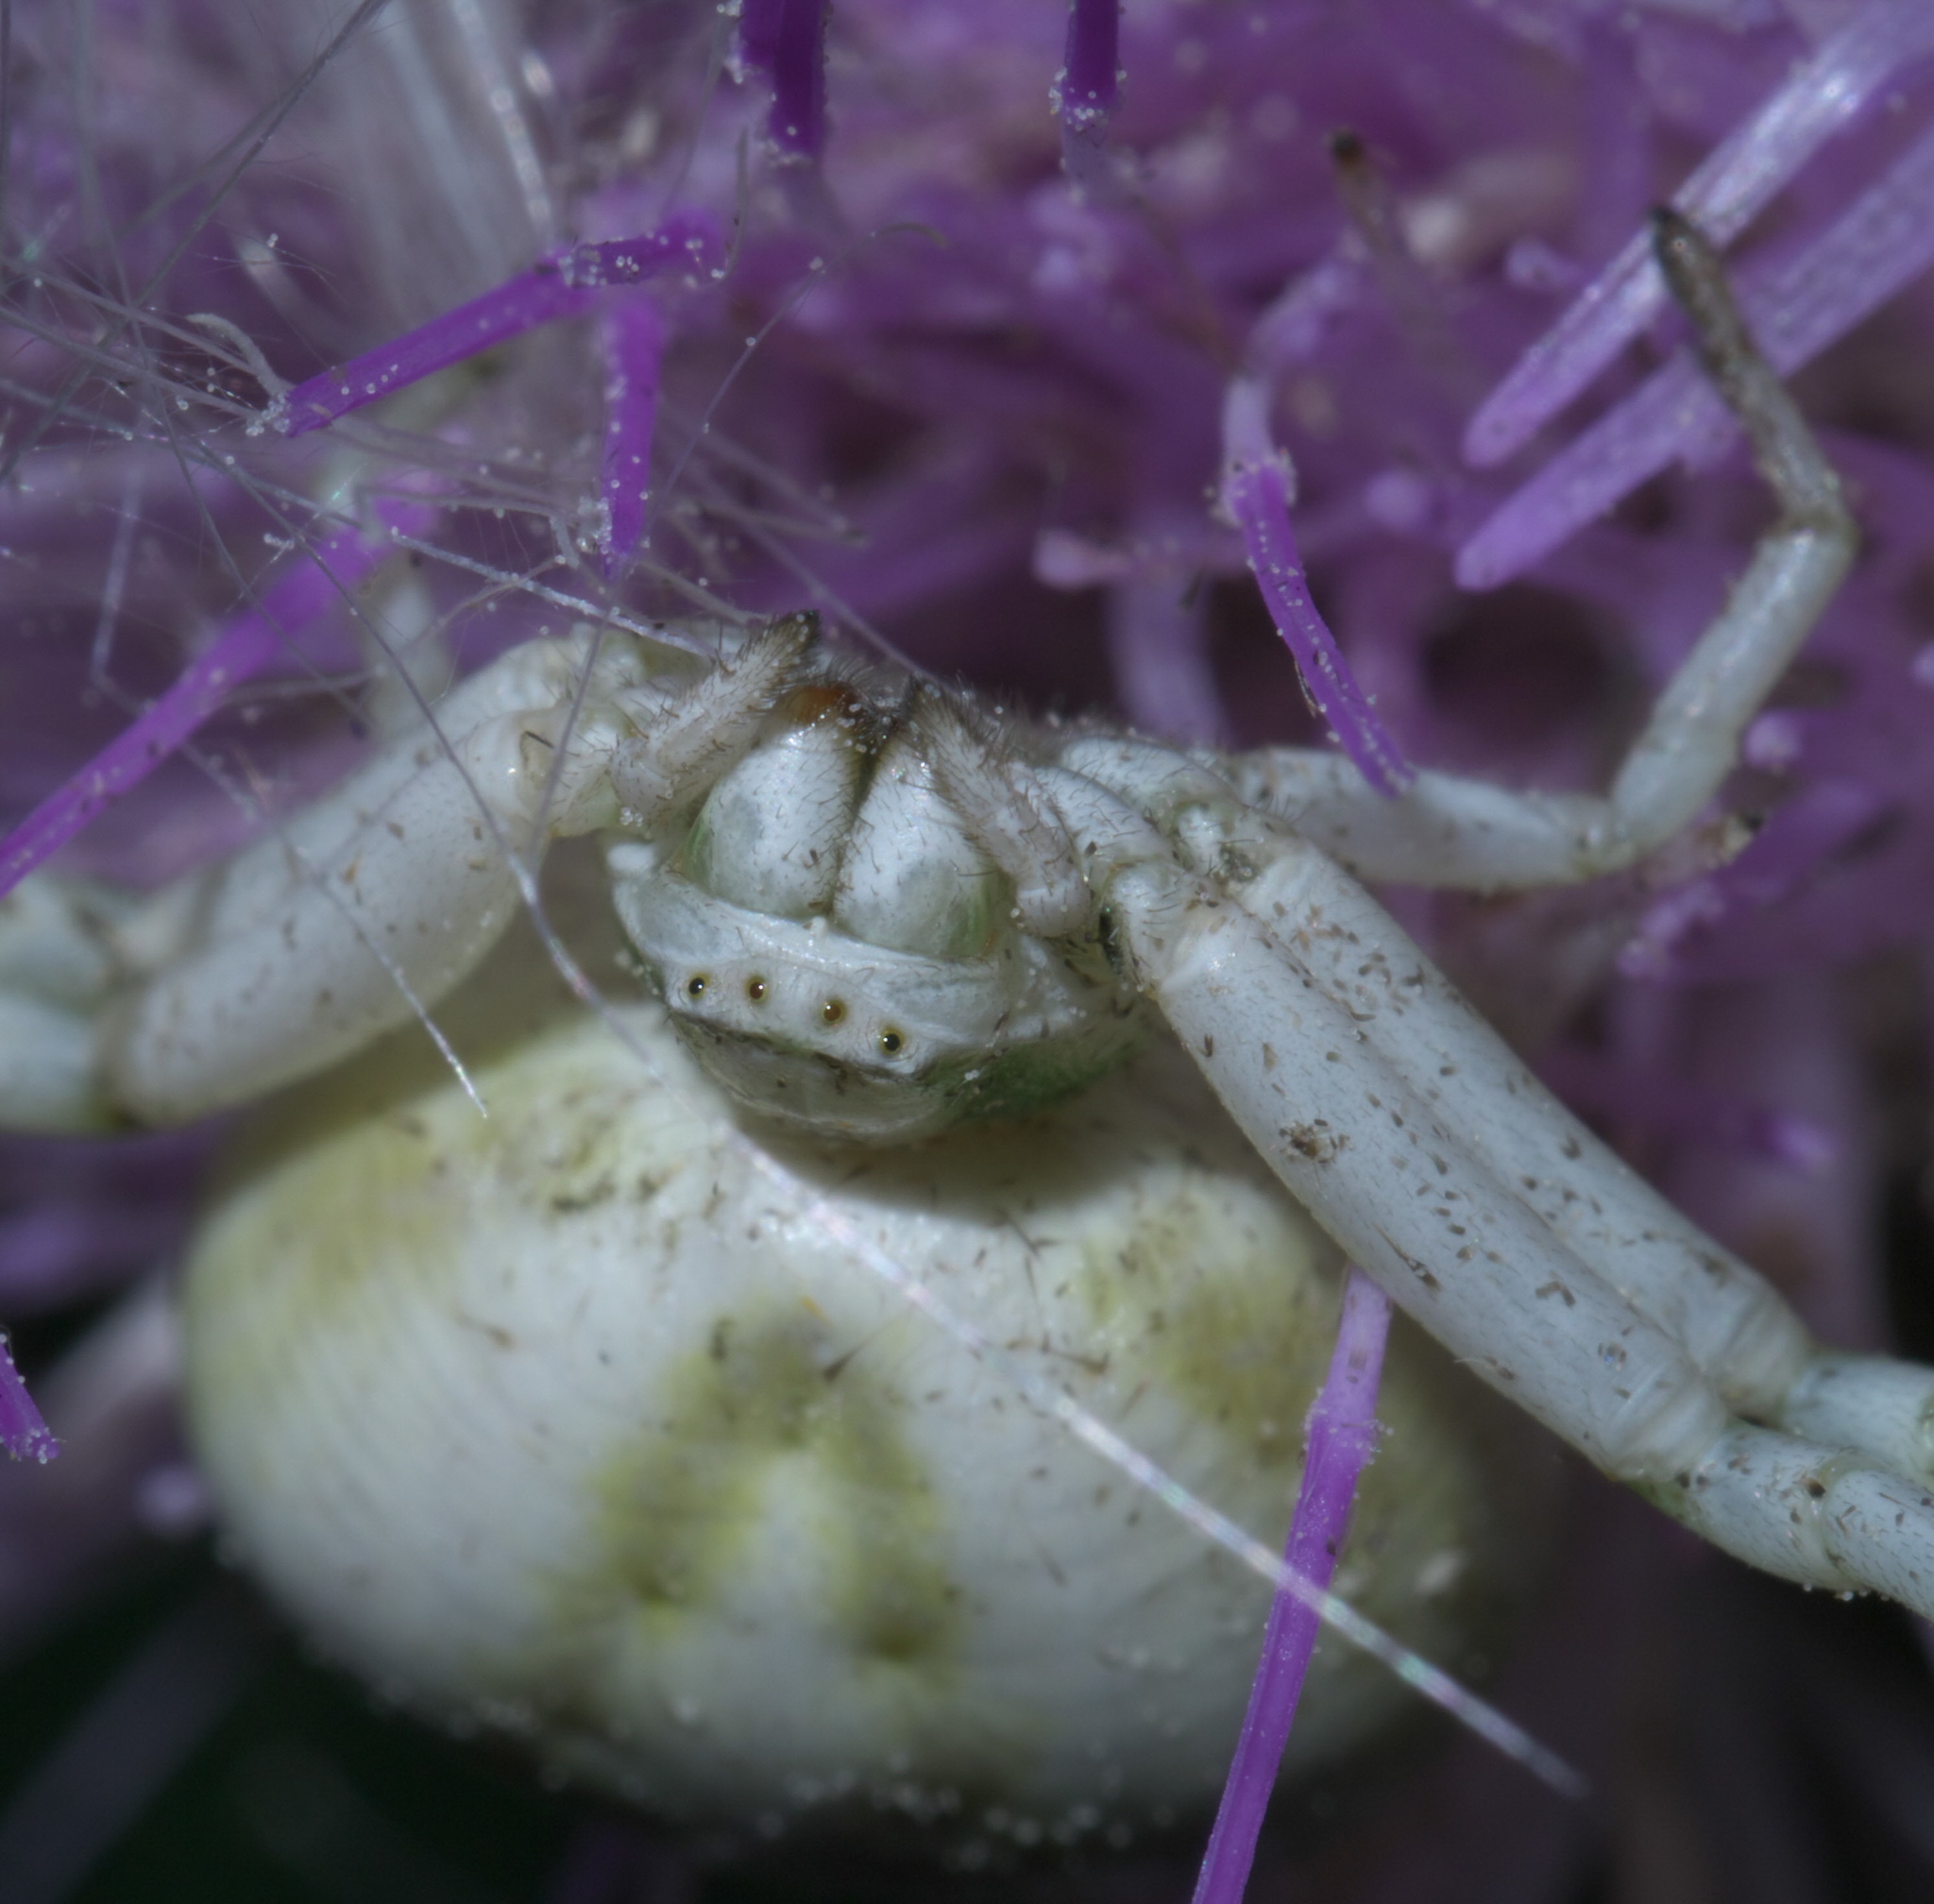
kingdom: Animalia
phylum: Arthropoda
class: Arachnida
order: Araneae
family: Thomisidae
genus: Misumenoides
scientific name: Misumenoides formosipes
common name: White-banded crab spider
